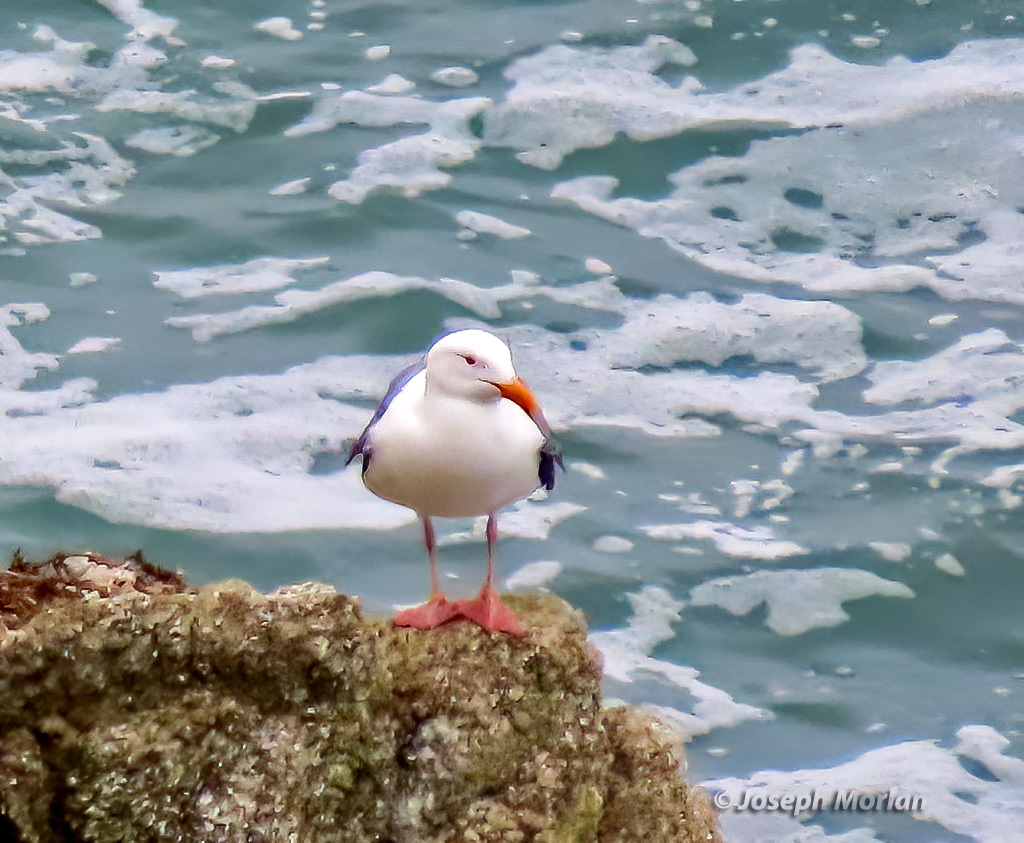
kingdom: Animalia
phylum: Chordata
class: Aves
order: Charadriiformes
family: Laridae
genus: Larus
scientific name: Larus occidentalis
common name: Western gull
